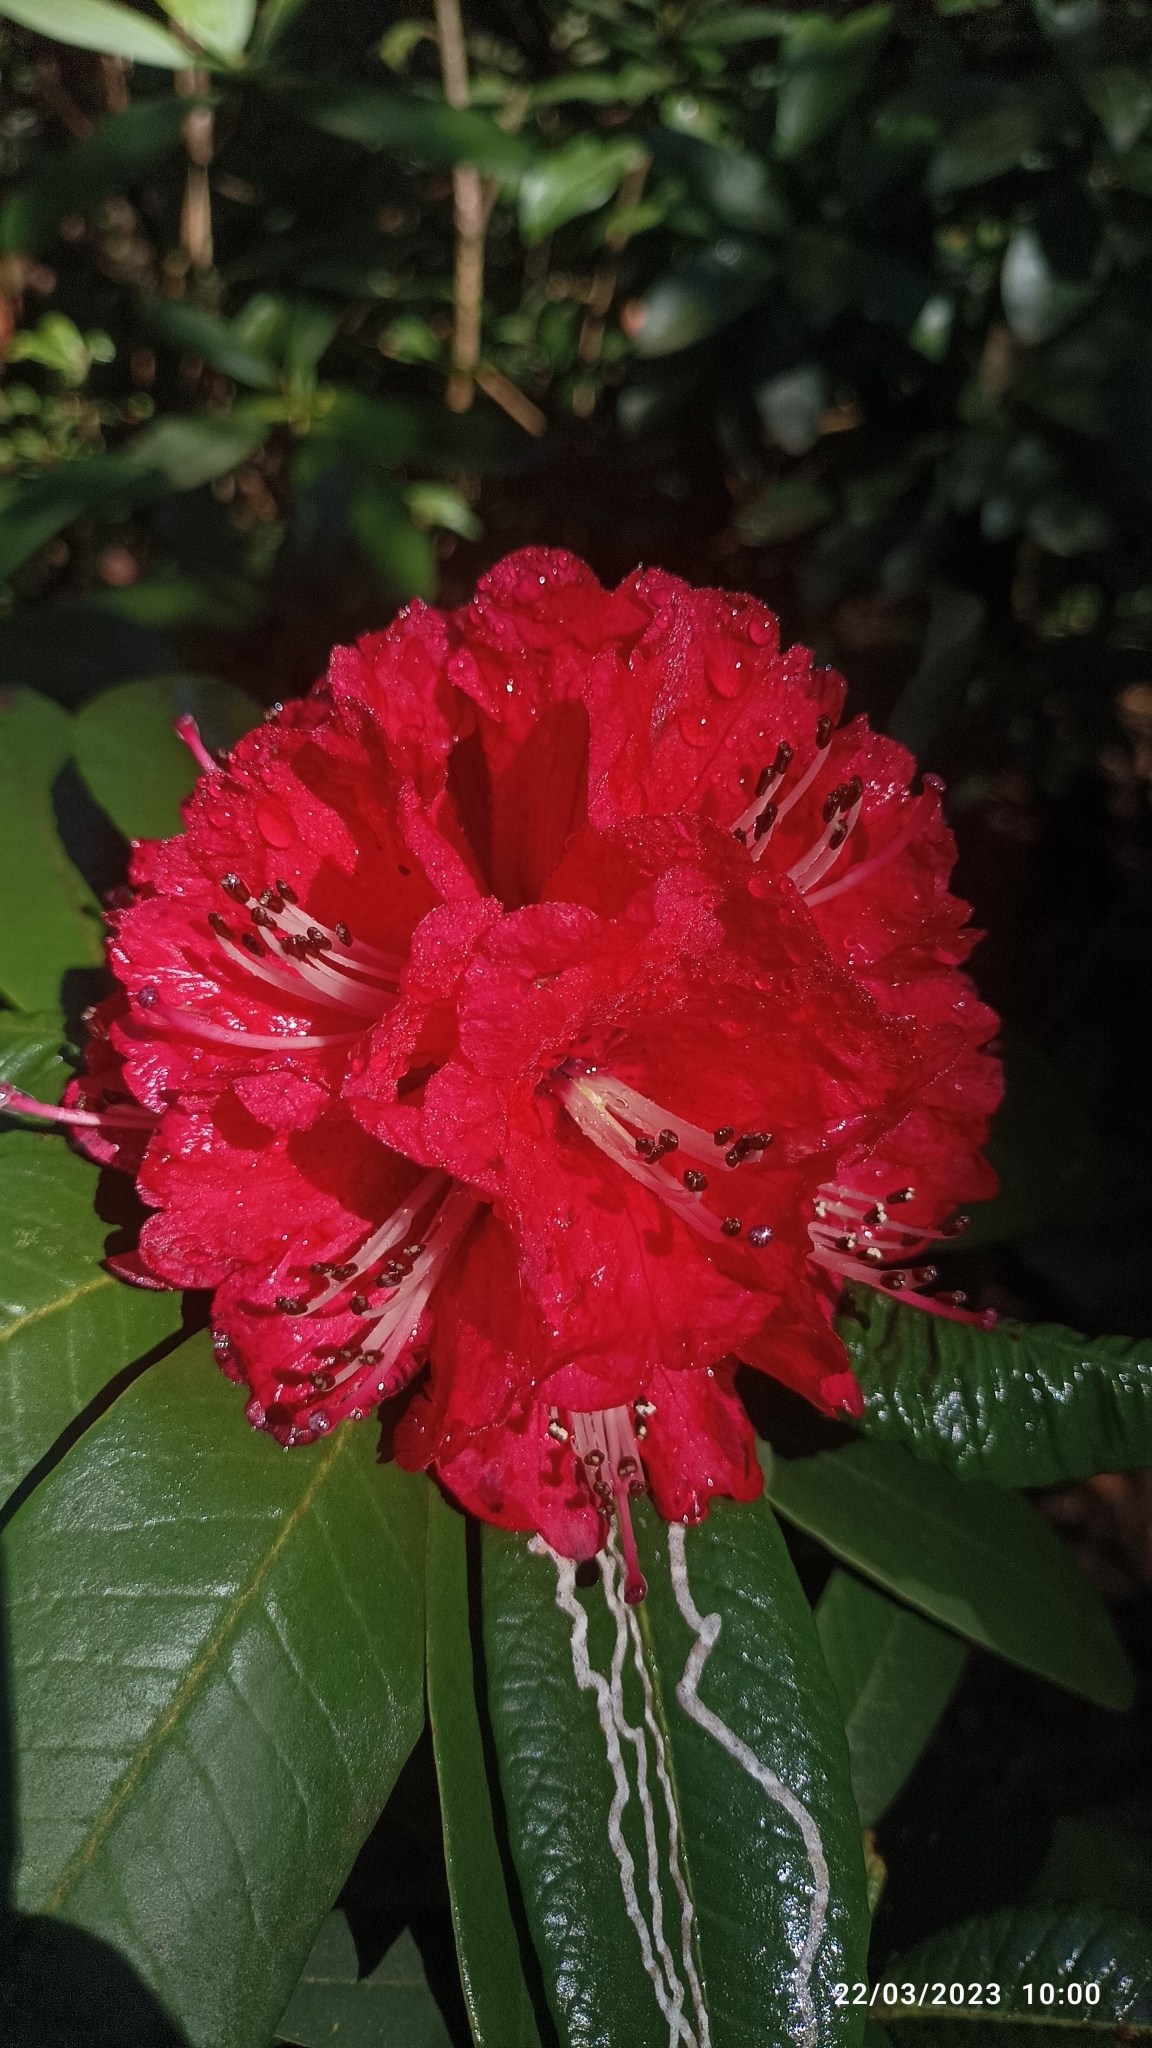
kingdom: Plantae
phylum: Tracheophyta
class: Magnoliopsida
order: Ericales
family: Ericaceae
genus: Rhododendron
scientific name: Rhododendron arboreum
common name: Tree rhododendron
